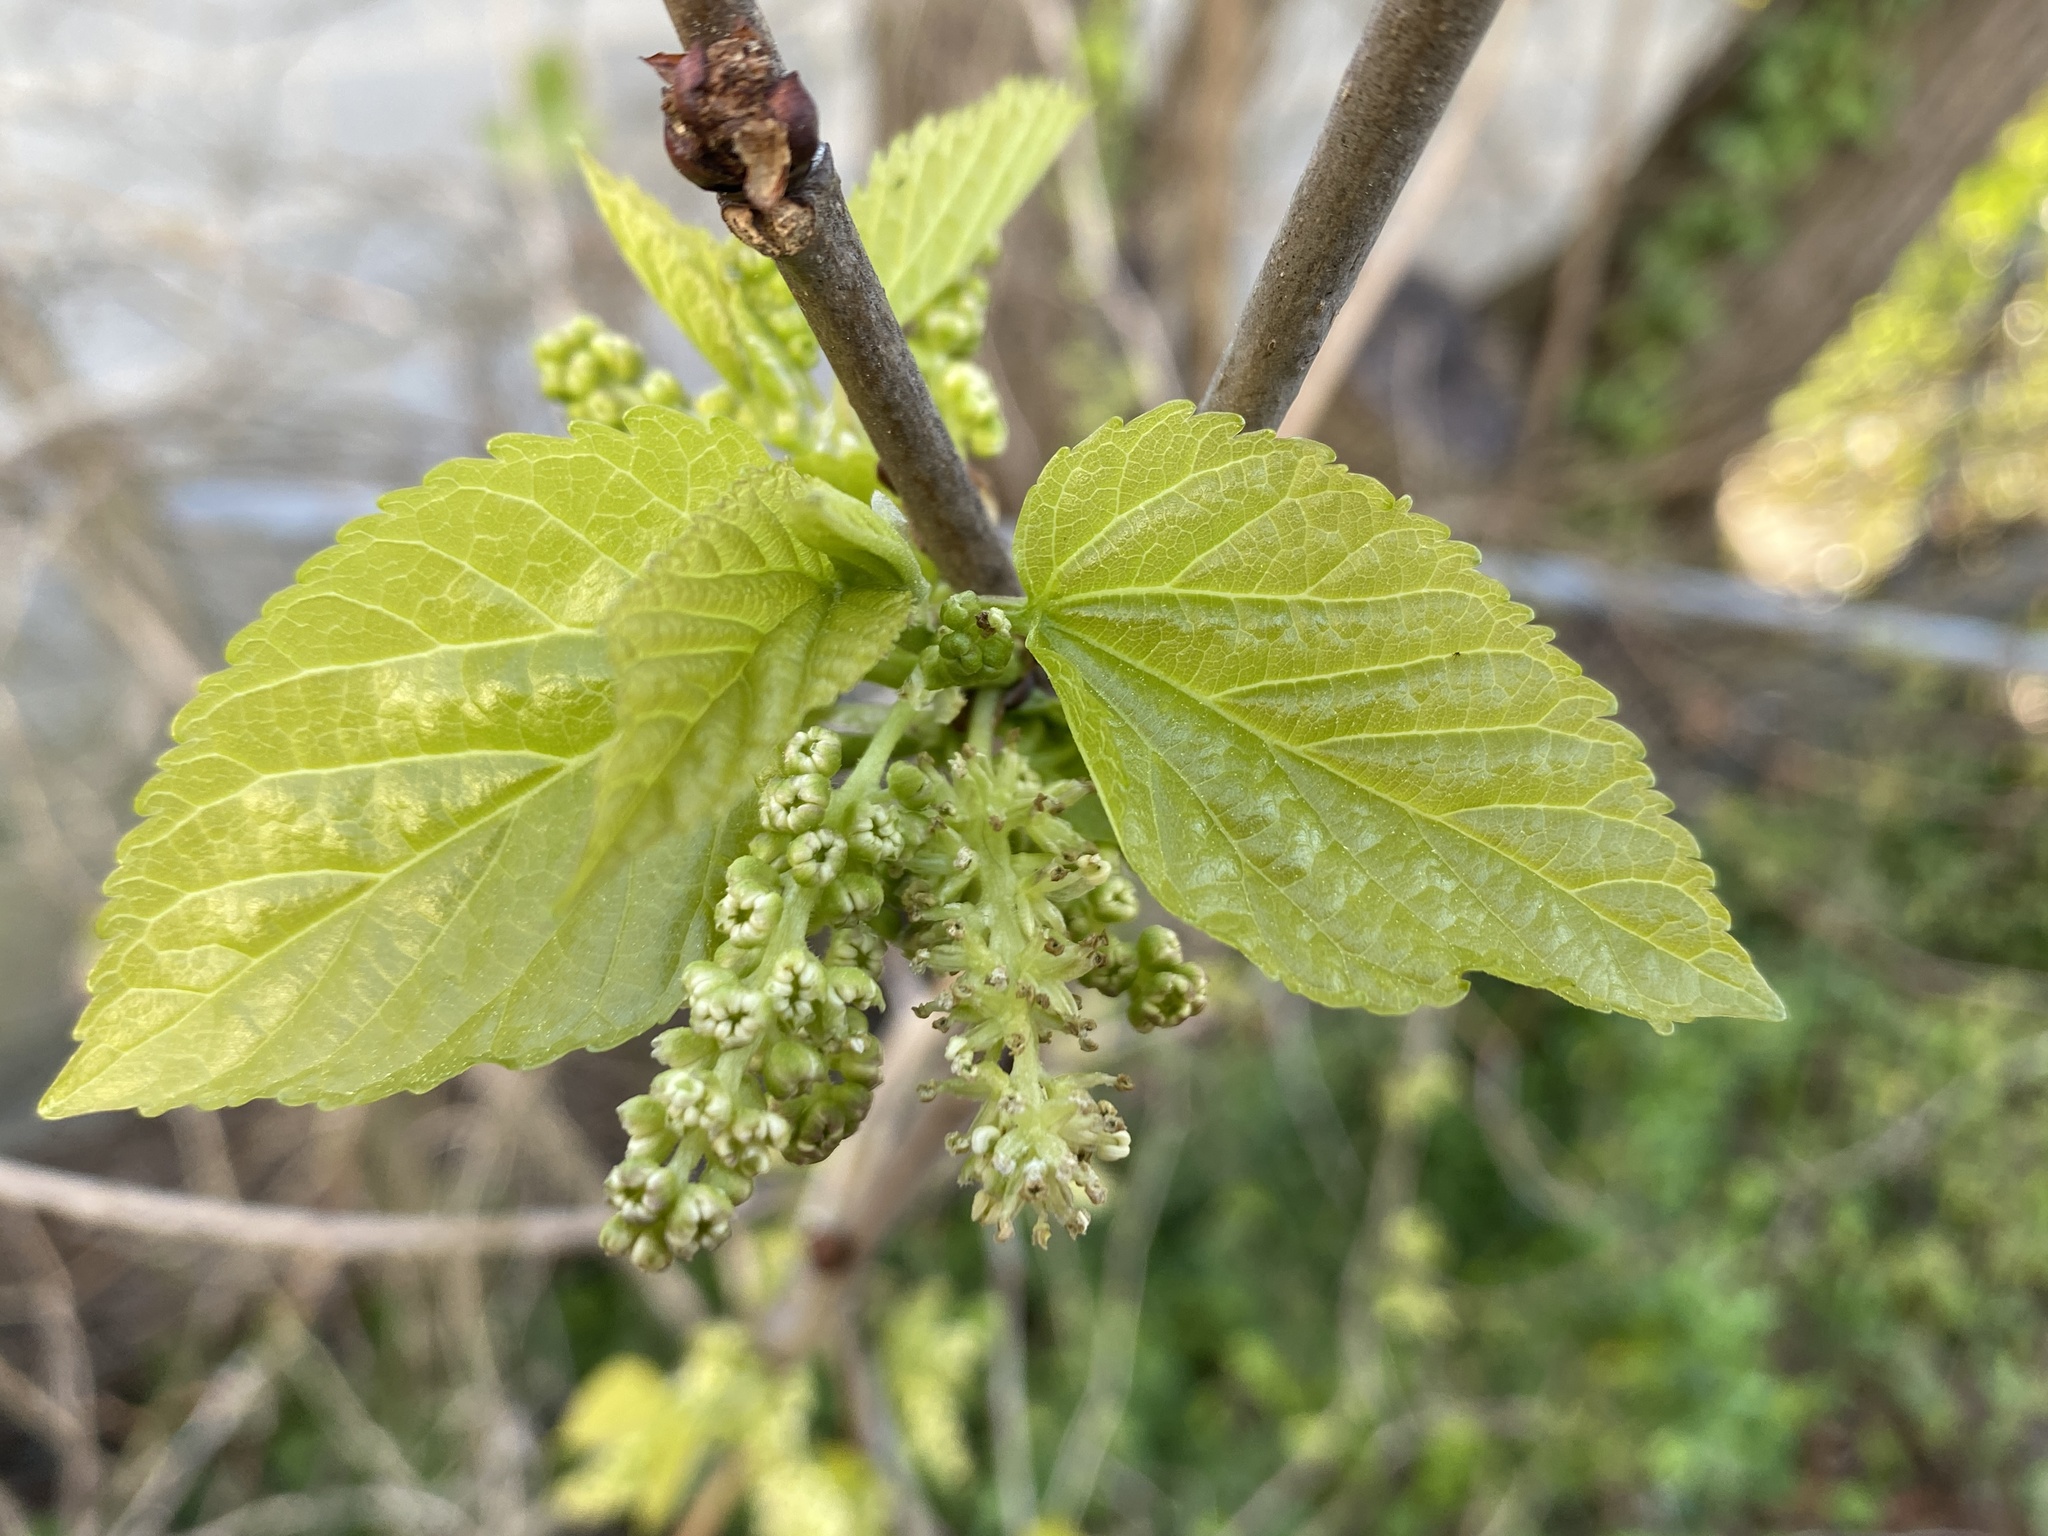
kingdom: Plantae
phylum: Tracheophyta
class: Magnoliopsida
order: Rosales
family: Moraceae
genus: Morus
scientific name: Morus rubra
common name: Red mulberry
